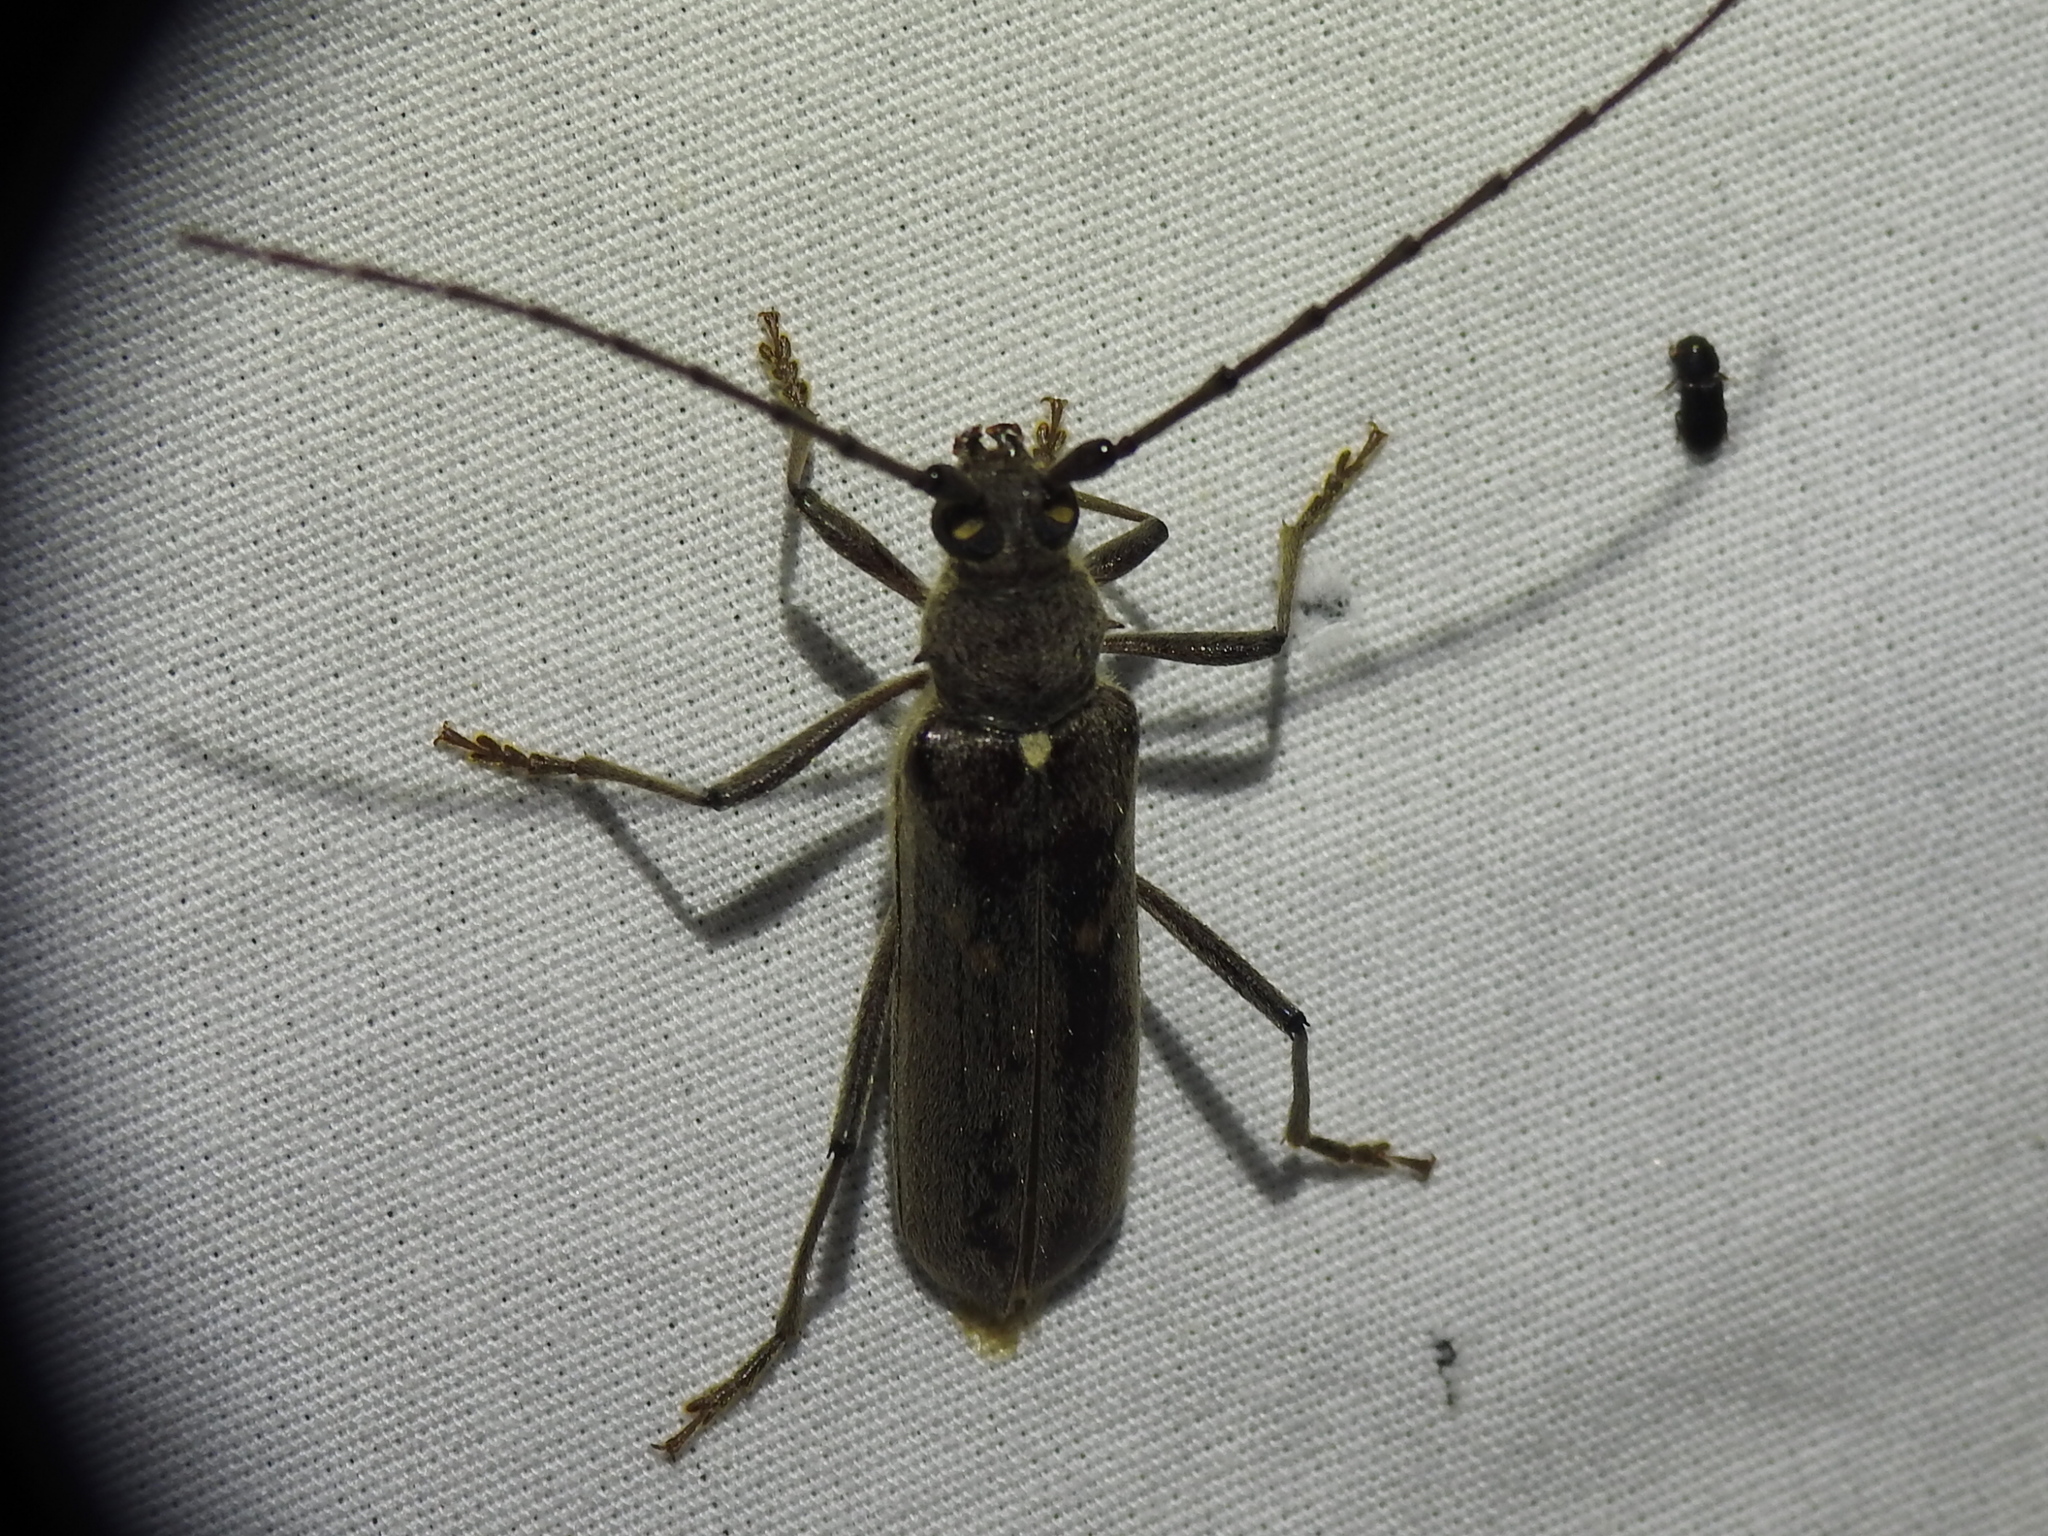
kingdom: Animalia
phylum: Arthropoda
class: Insecta
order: Coleoptera
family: Cerambycidae
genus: Knulliana
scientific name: Knulliana cincta
